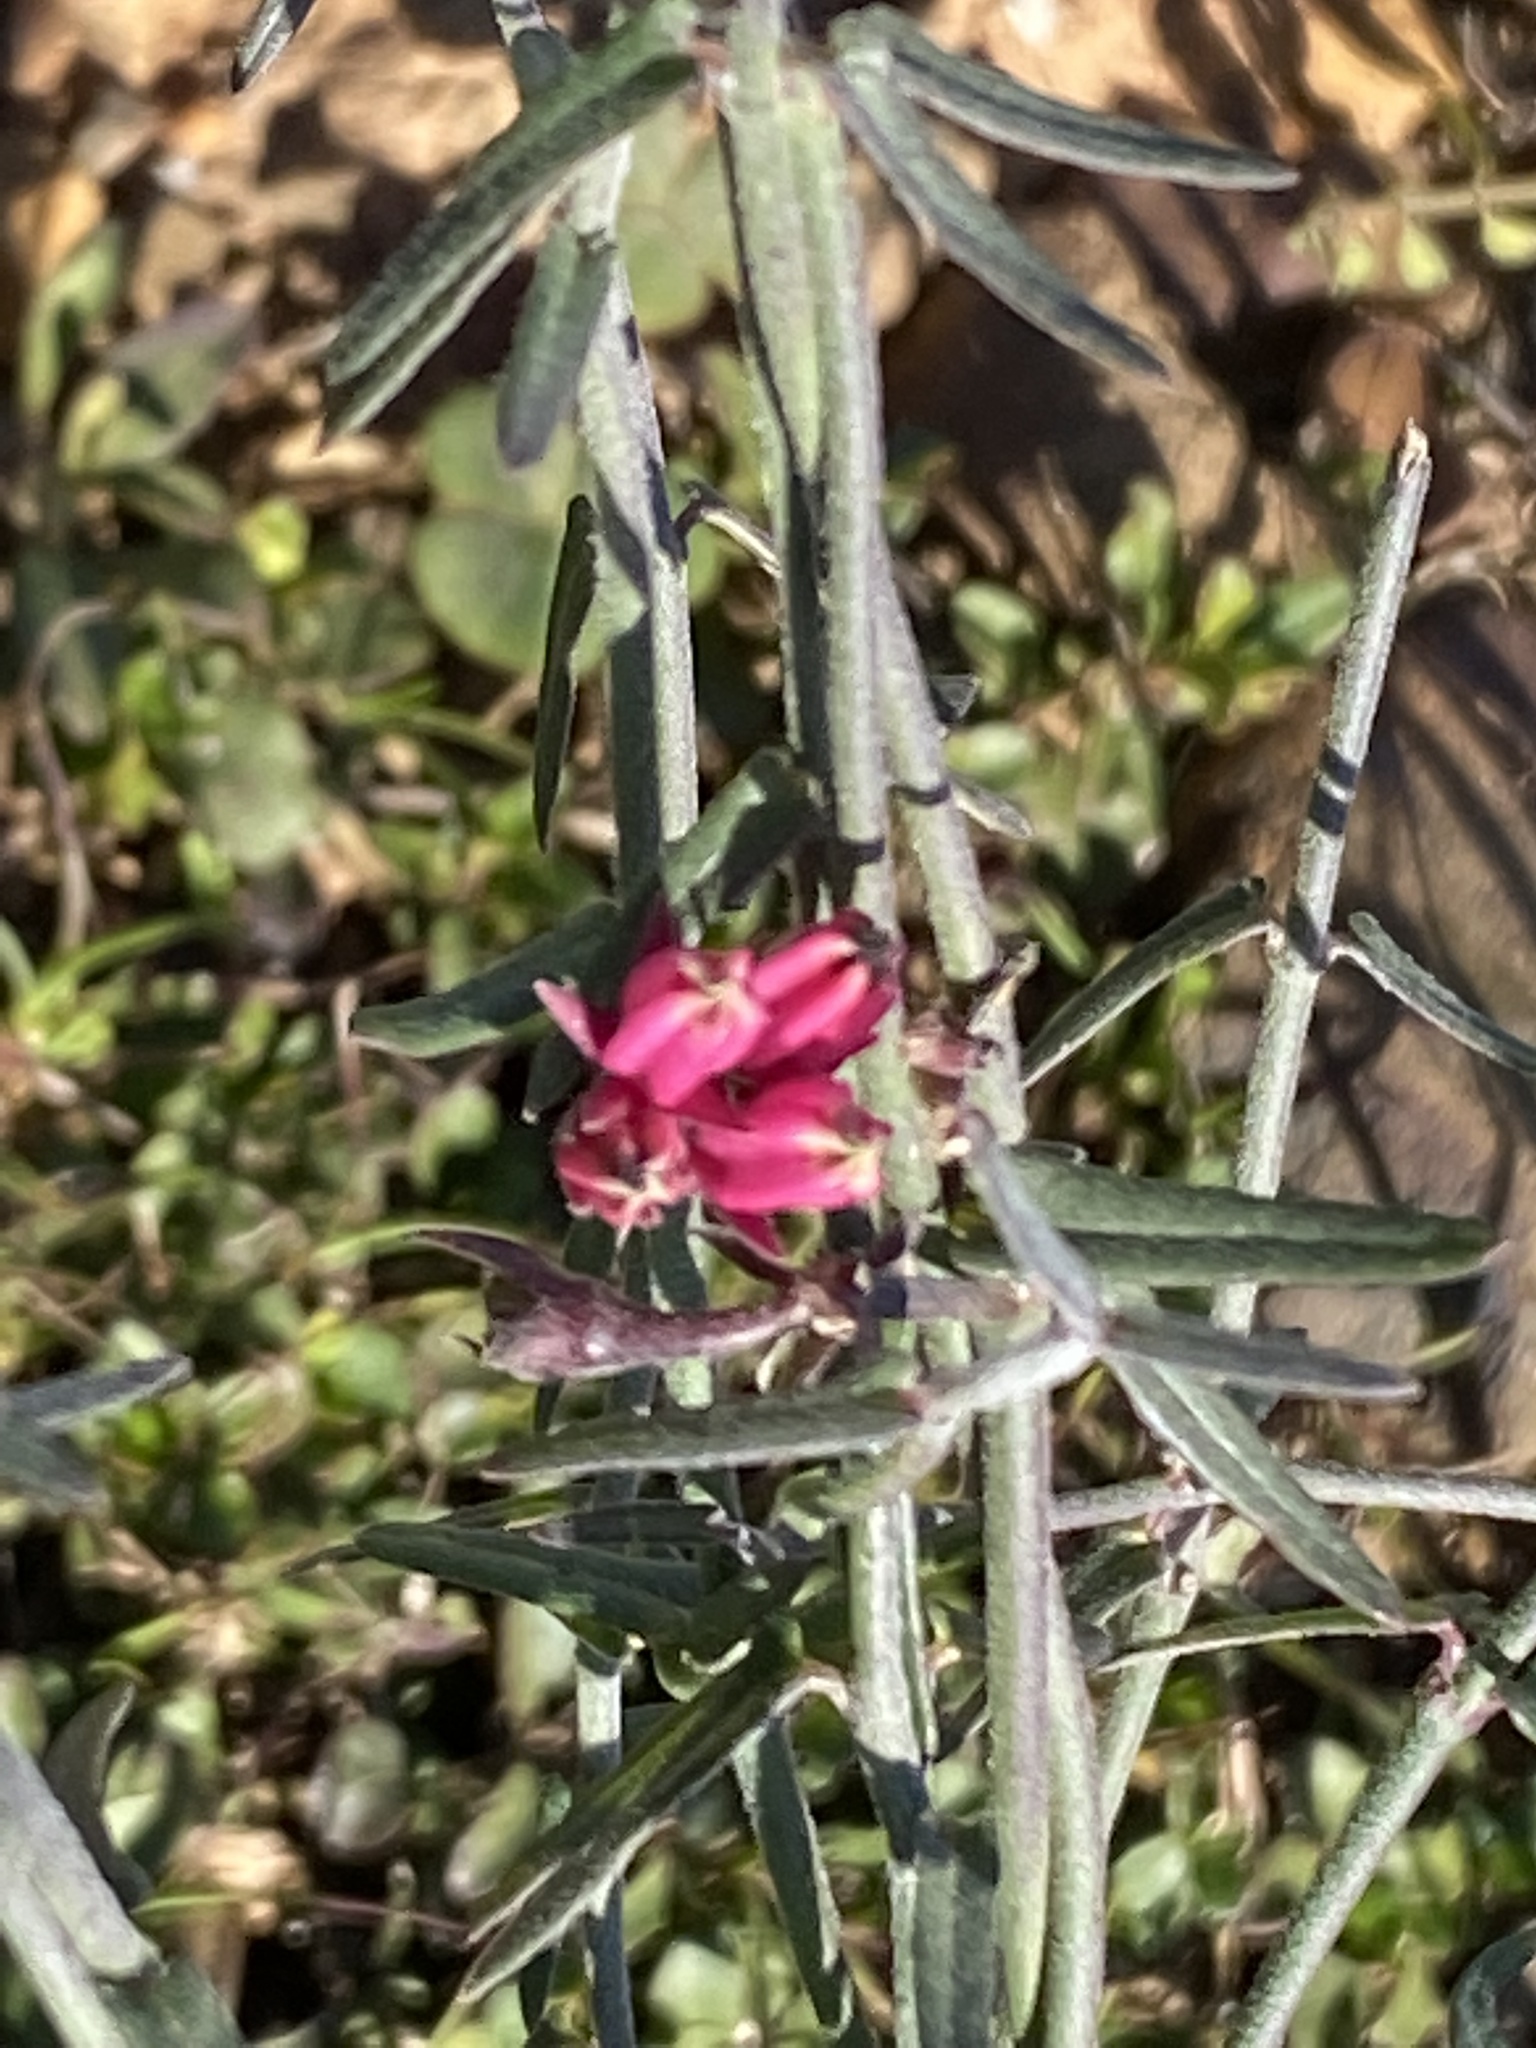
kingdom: Plantae
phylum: Tracheophyta
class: Magnoliopsida
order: Gentianales
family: Apocynaceae
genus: Microloma
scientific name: Microloma sagittatum
